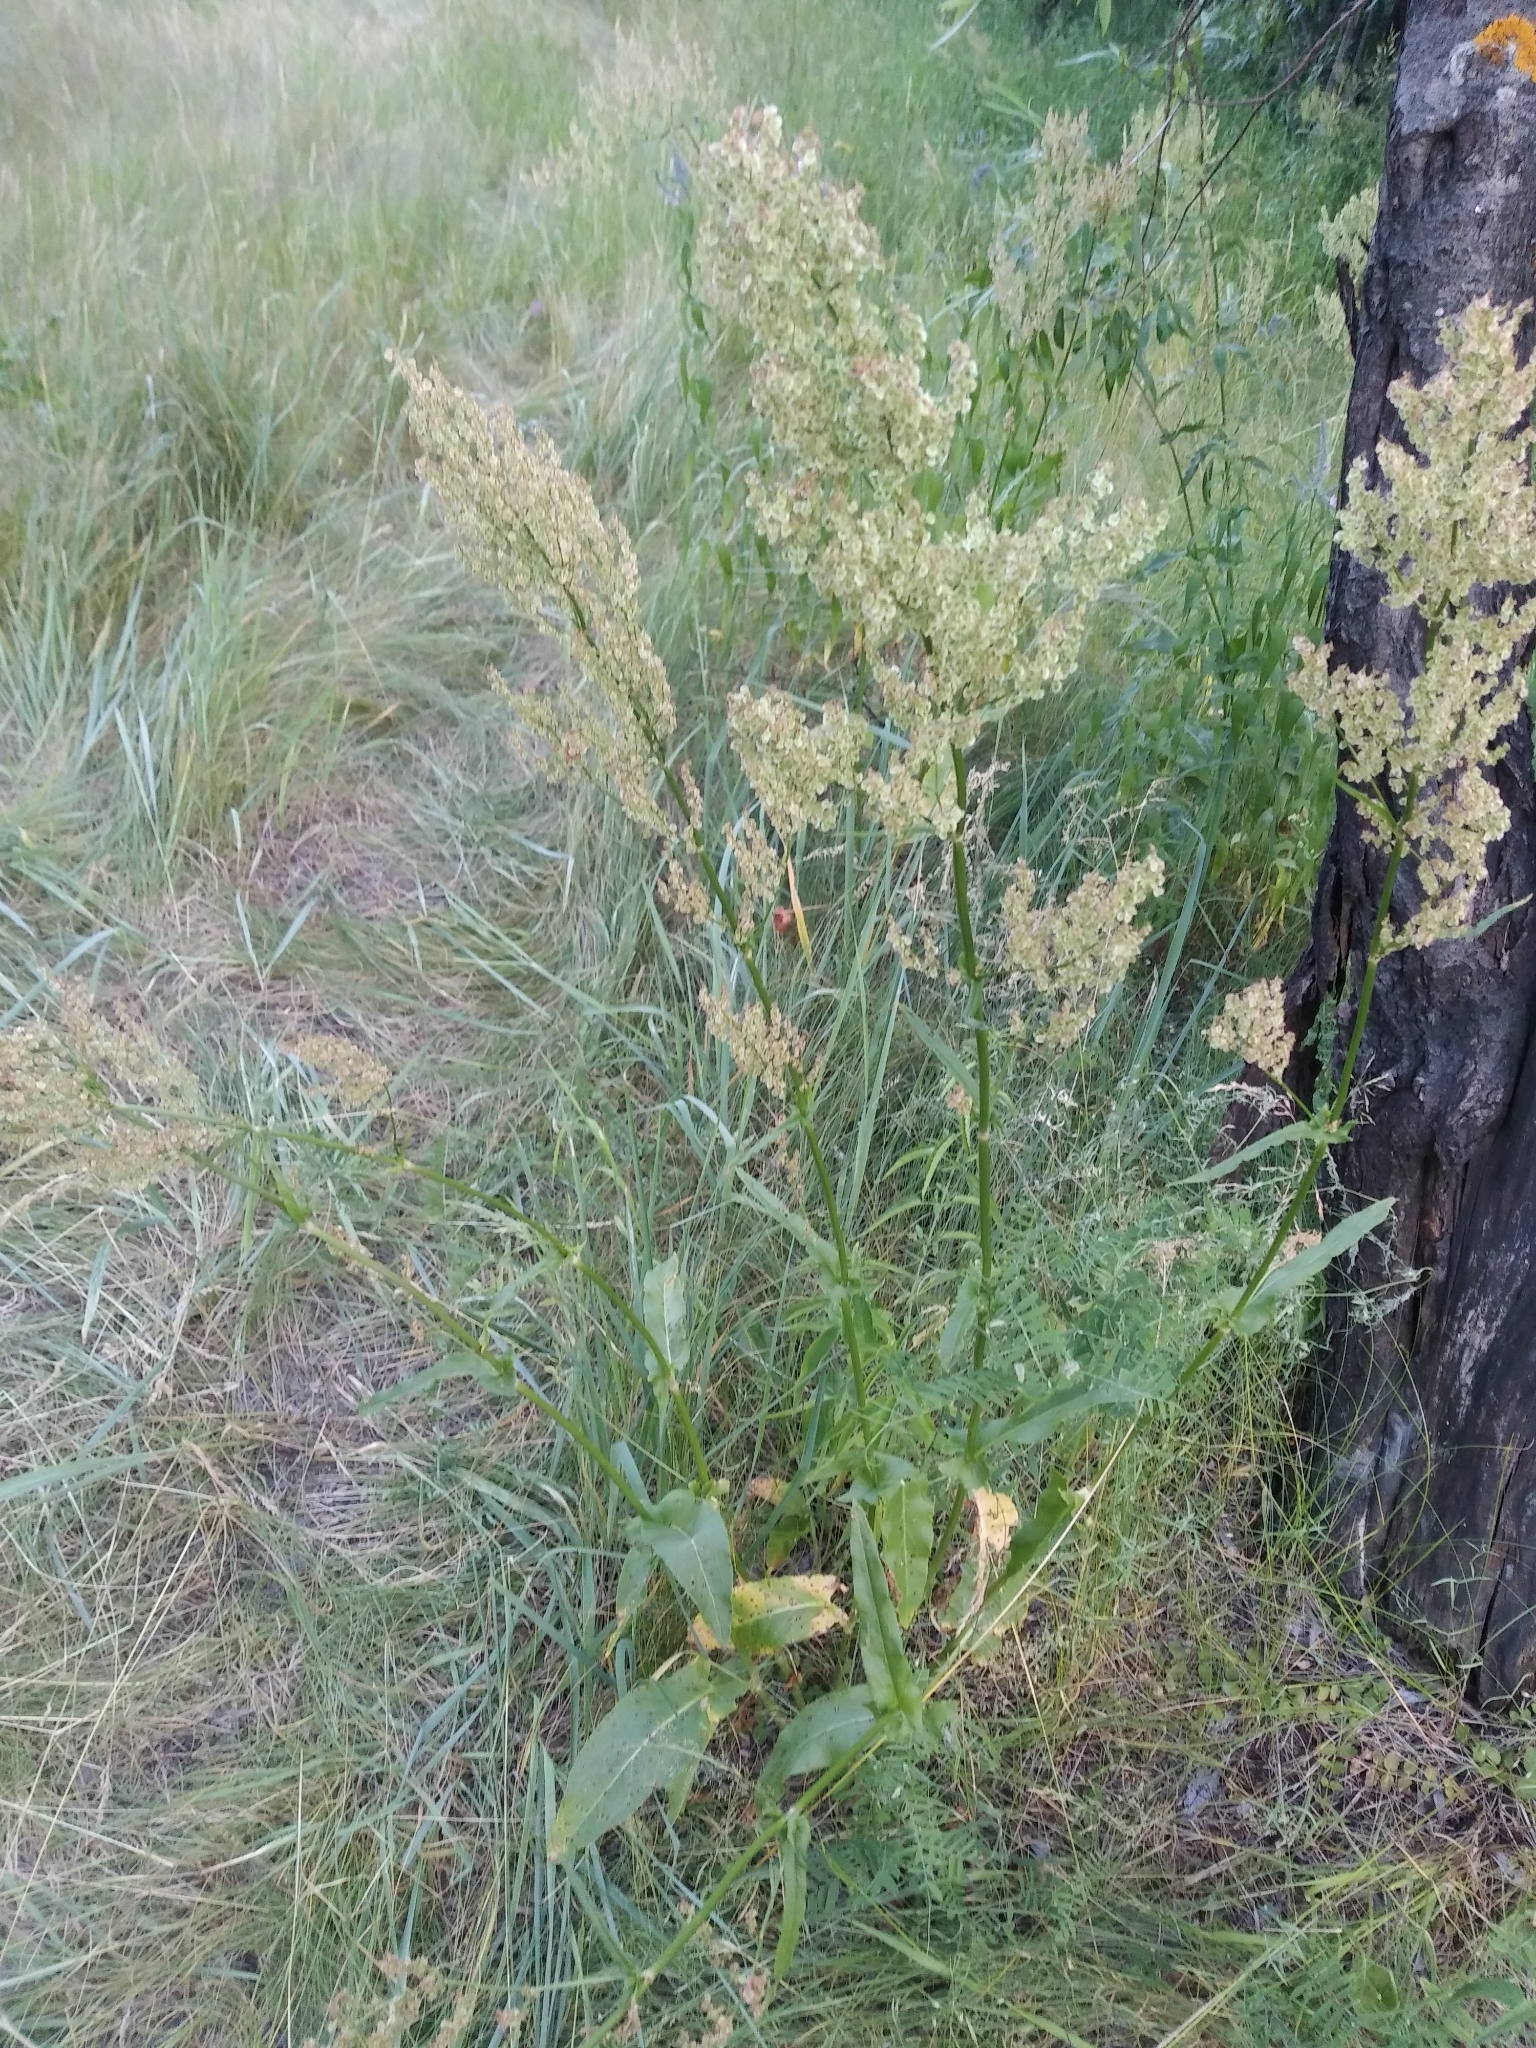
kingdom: Plantae
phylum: Tracheophyta
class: Magnoliopsida
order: Caryophyllales
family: Polygonaceae
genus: Rumex
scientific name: Rumex thyrsiflorus
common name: Garden sorrel
